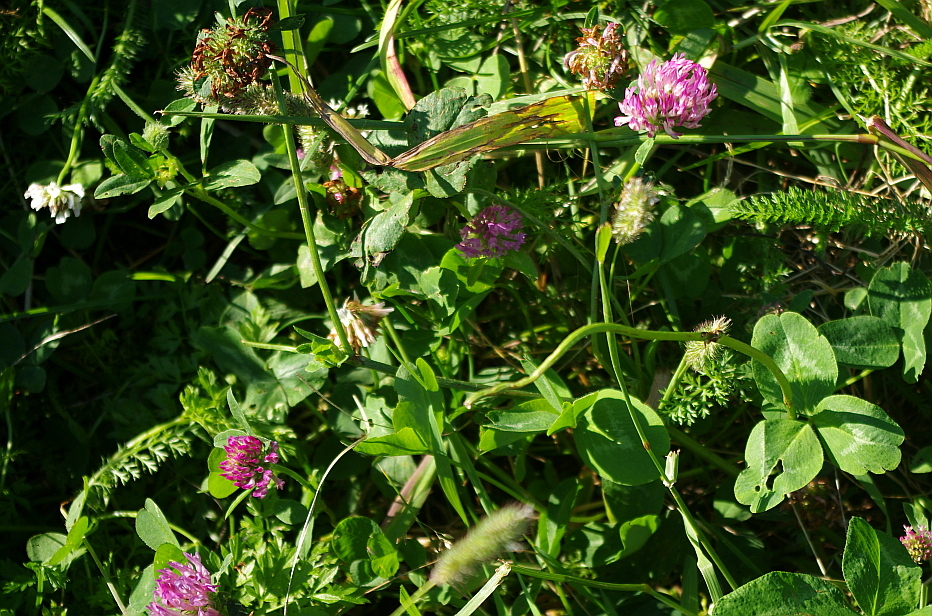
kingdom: Plantae
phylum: Tracheophyta
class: Magnoliopsida
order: Fabales
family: Fabaceae
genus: Trifolium
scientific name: Trifolium pratense
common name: Red clover
